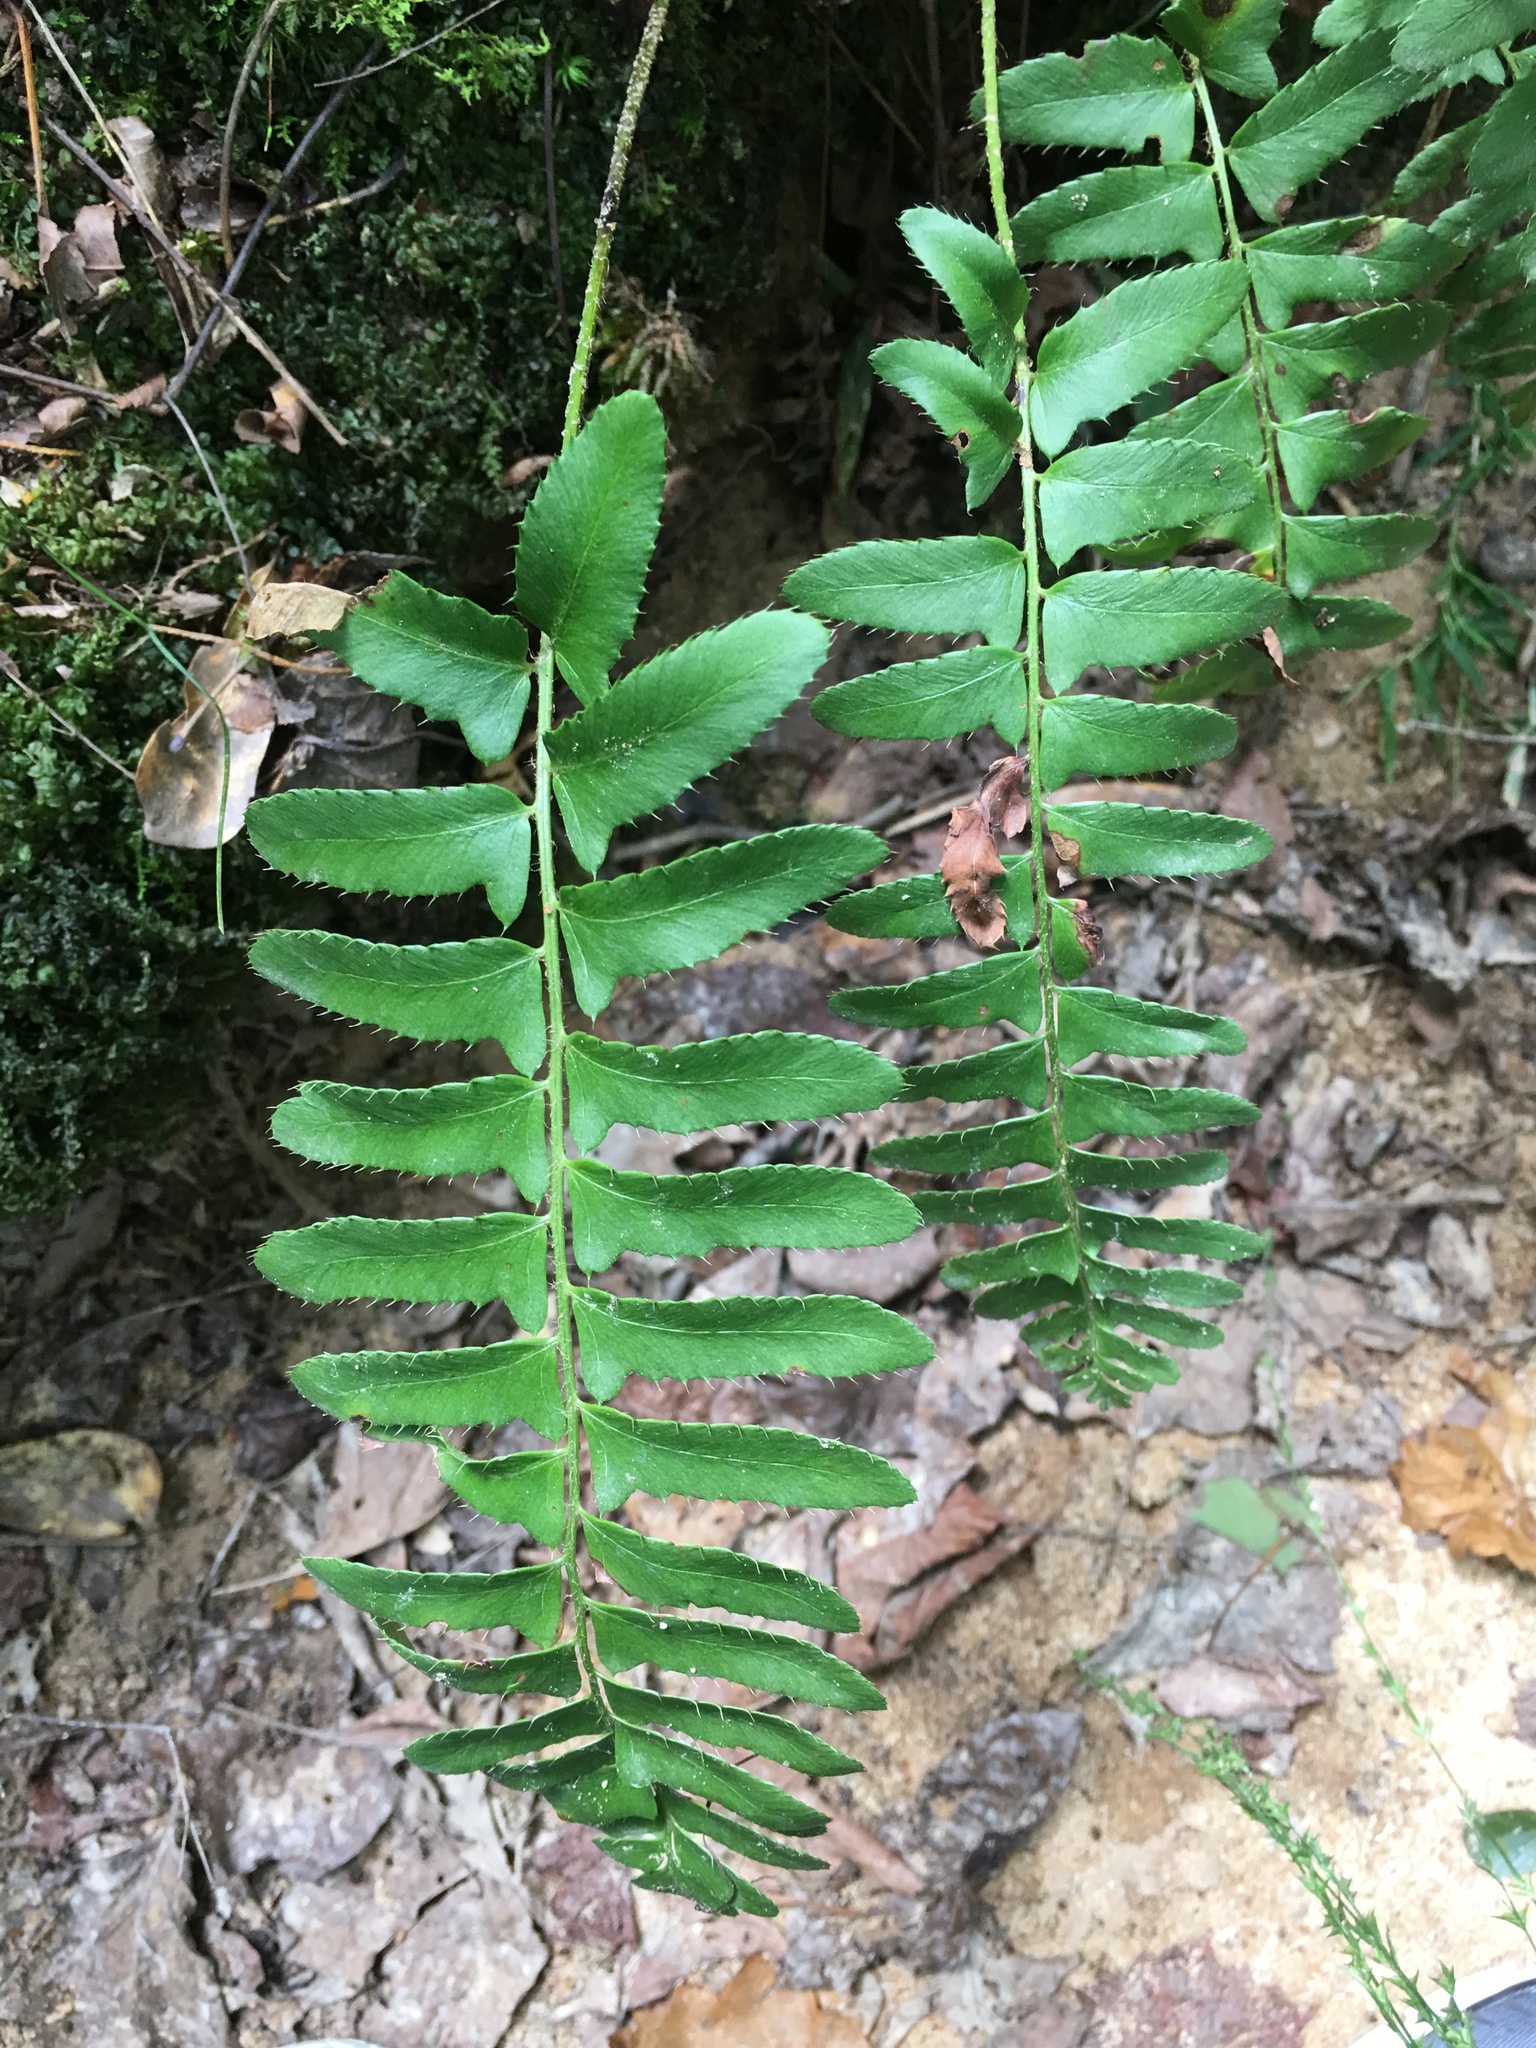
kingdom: Plantae
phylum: Tracheophyta
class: Polypodiopsida
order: Polypodiales
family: Dryopteridaceae
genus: Polystichum
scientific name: Polystichum acrostichoides
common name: Christmas fern
